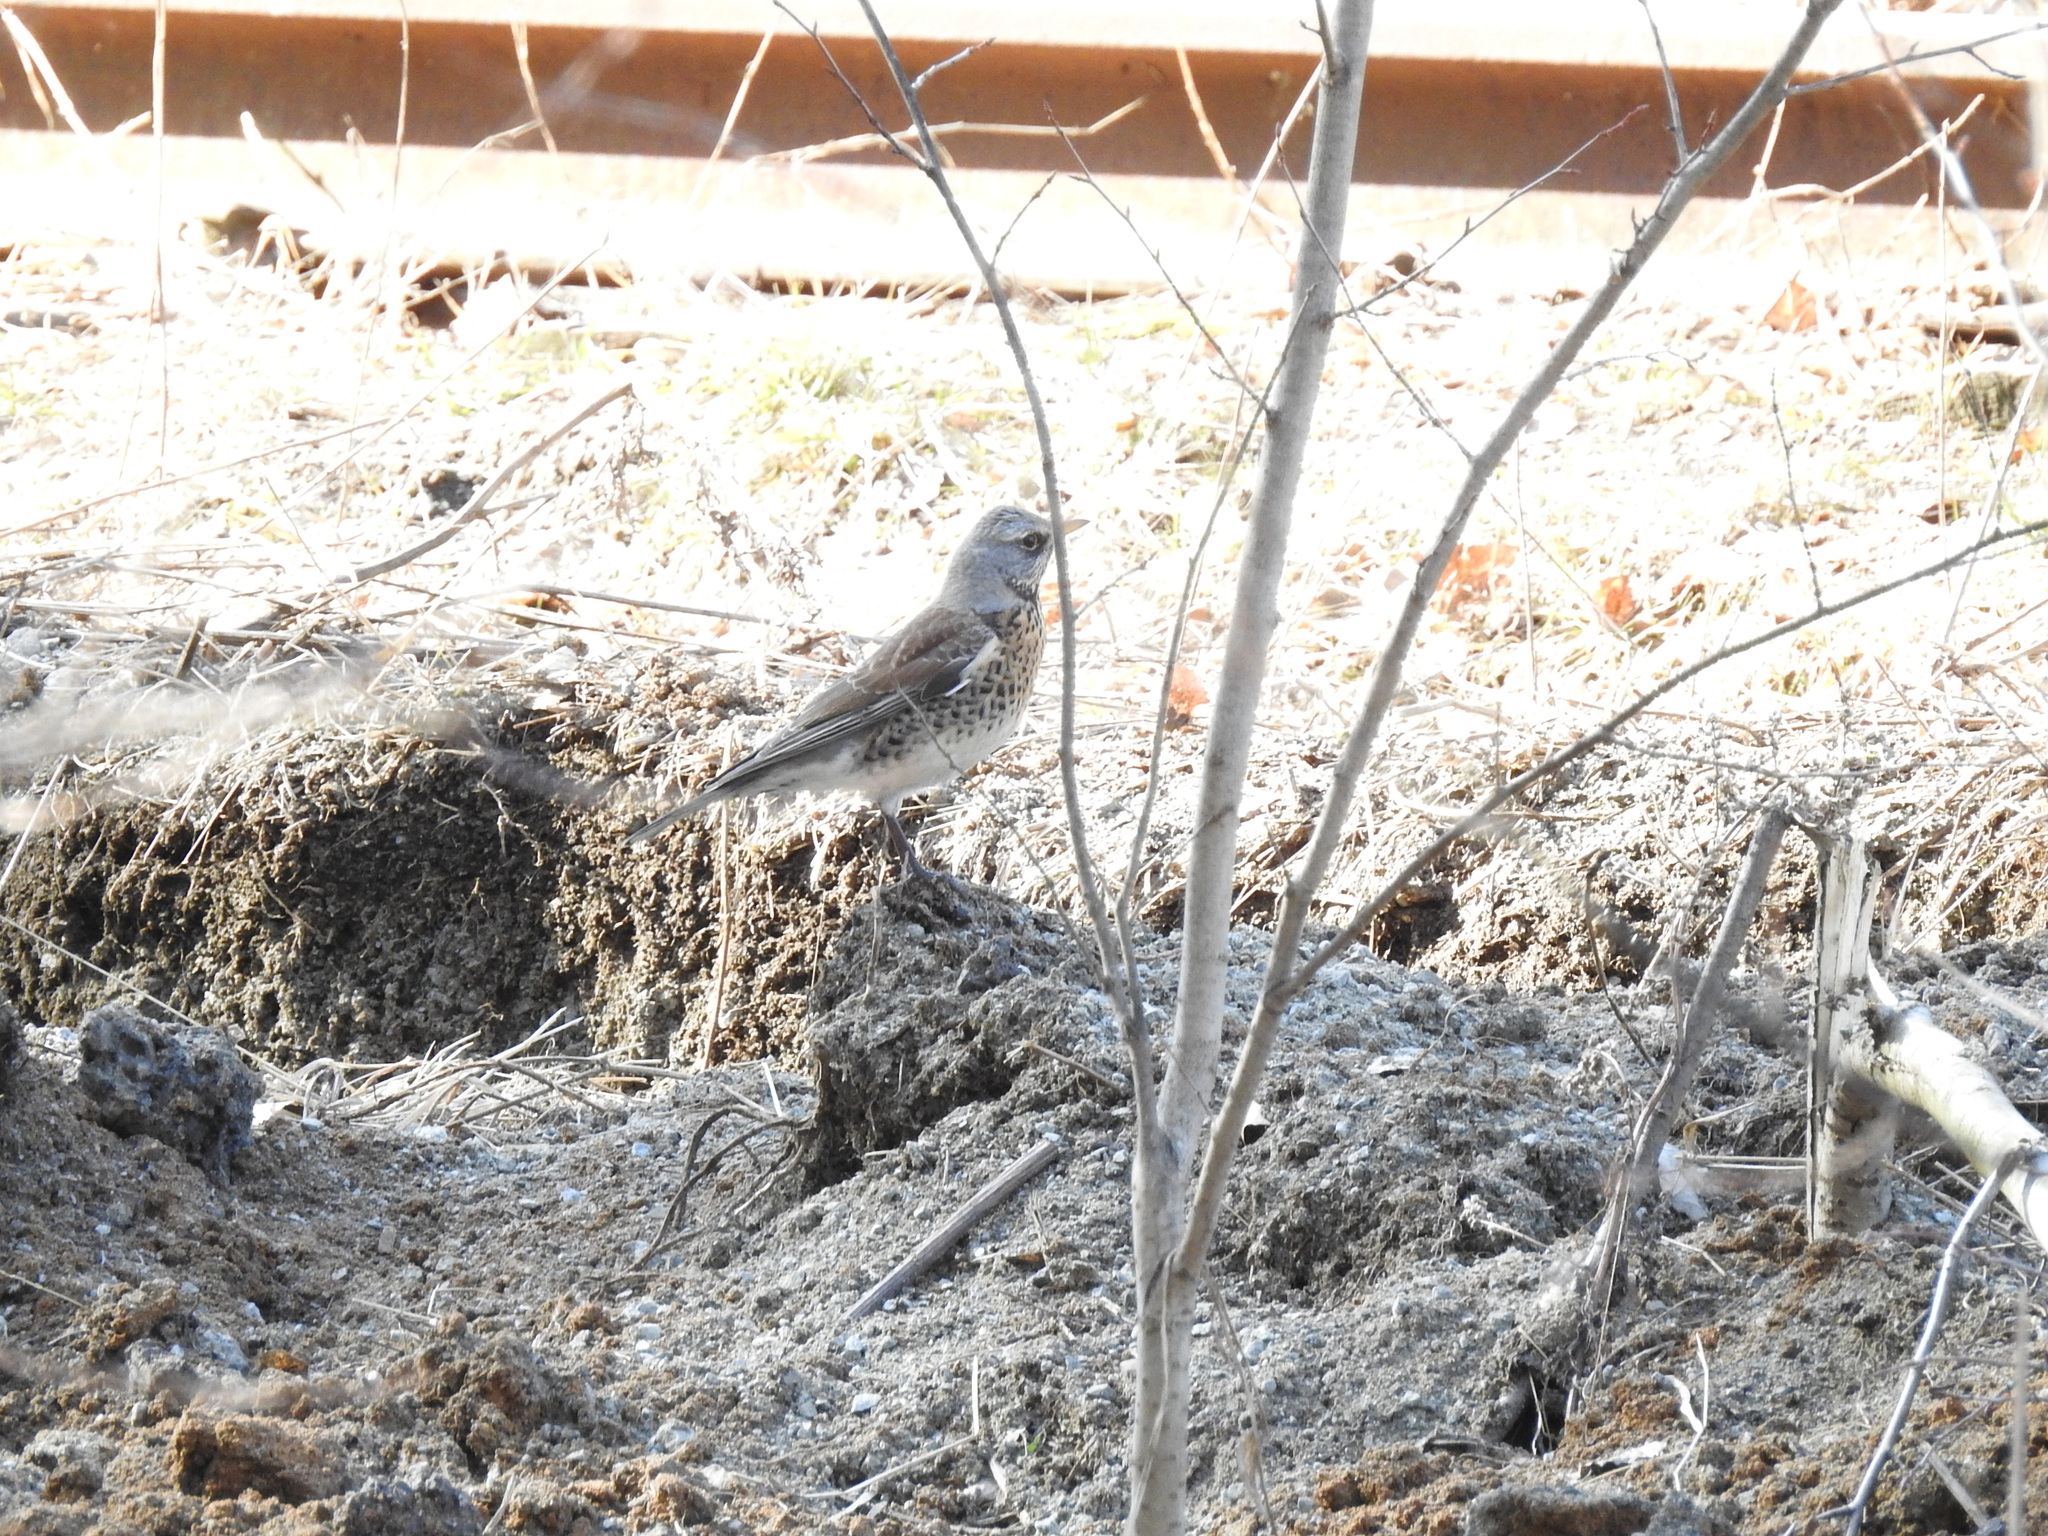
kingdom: Animalia
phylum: Chordata
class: Aves
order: Passeriformes
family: Turdidae
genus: Turdus
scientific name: Turdus pilaris
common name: Fieldfare
